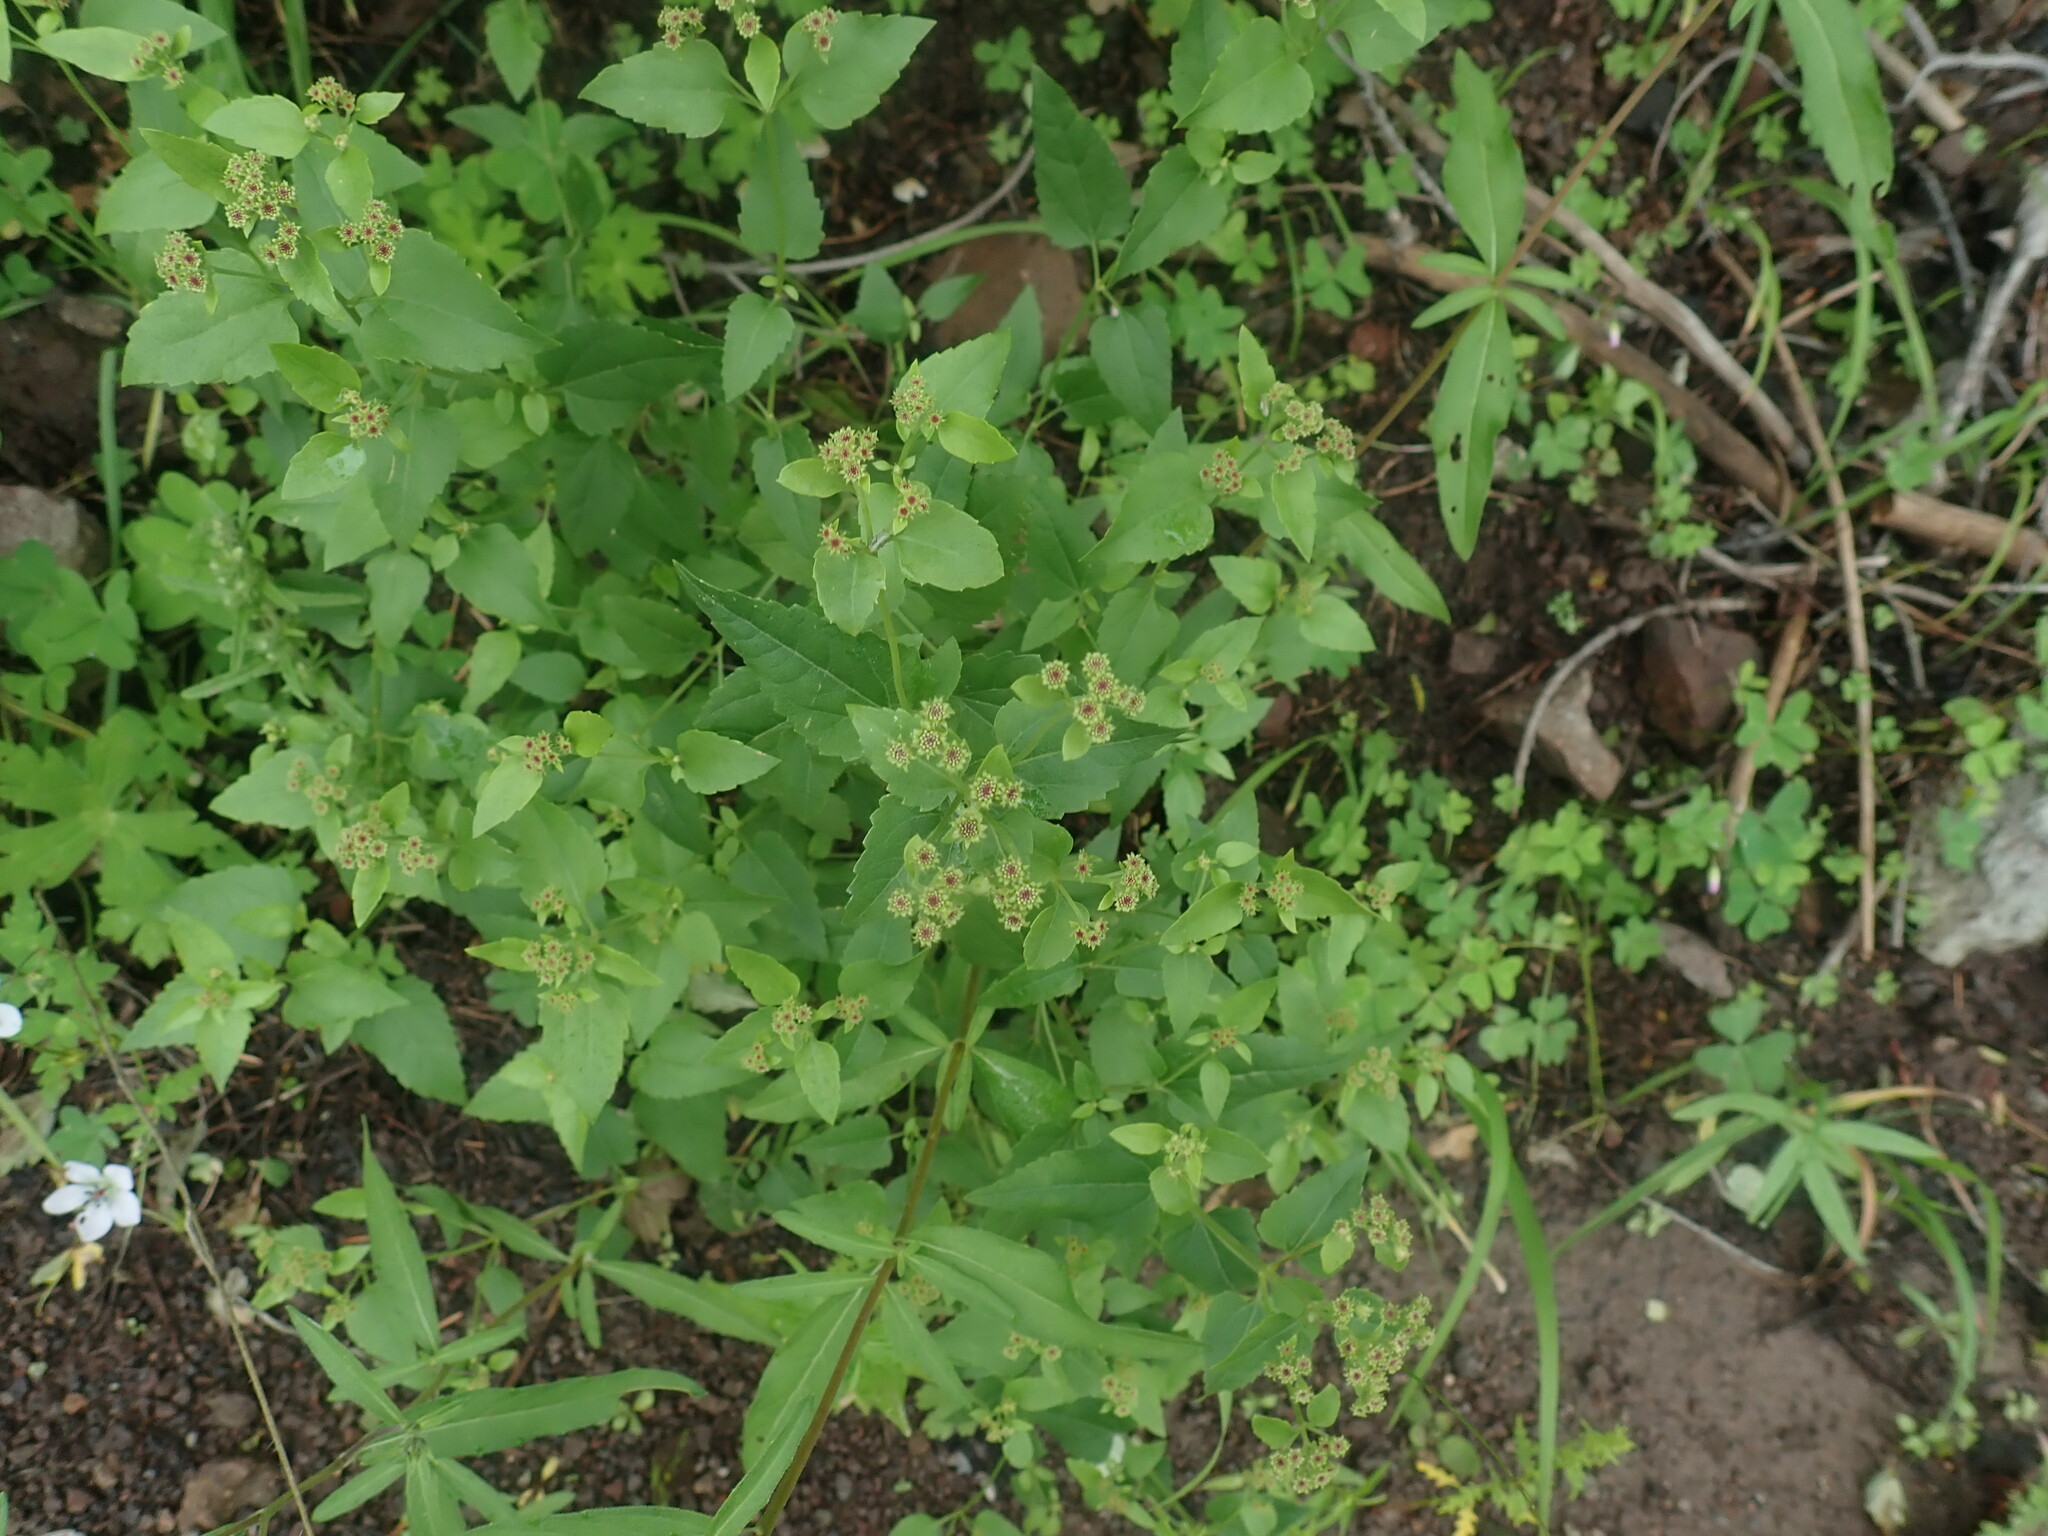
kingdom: Plantae
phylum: Tracheophyta
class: Magnoliopsida
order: Asterales
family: Asteraceae
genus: Ageratina
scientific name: Ageratina herbacea
